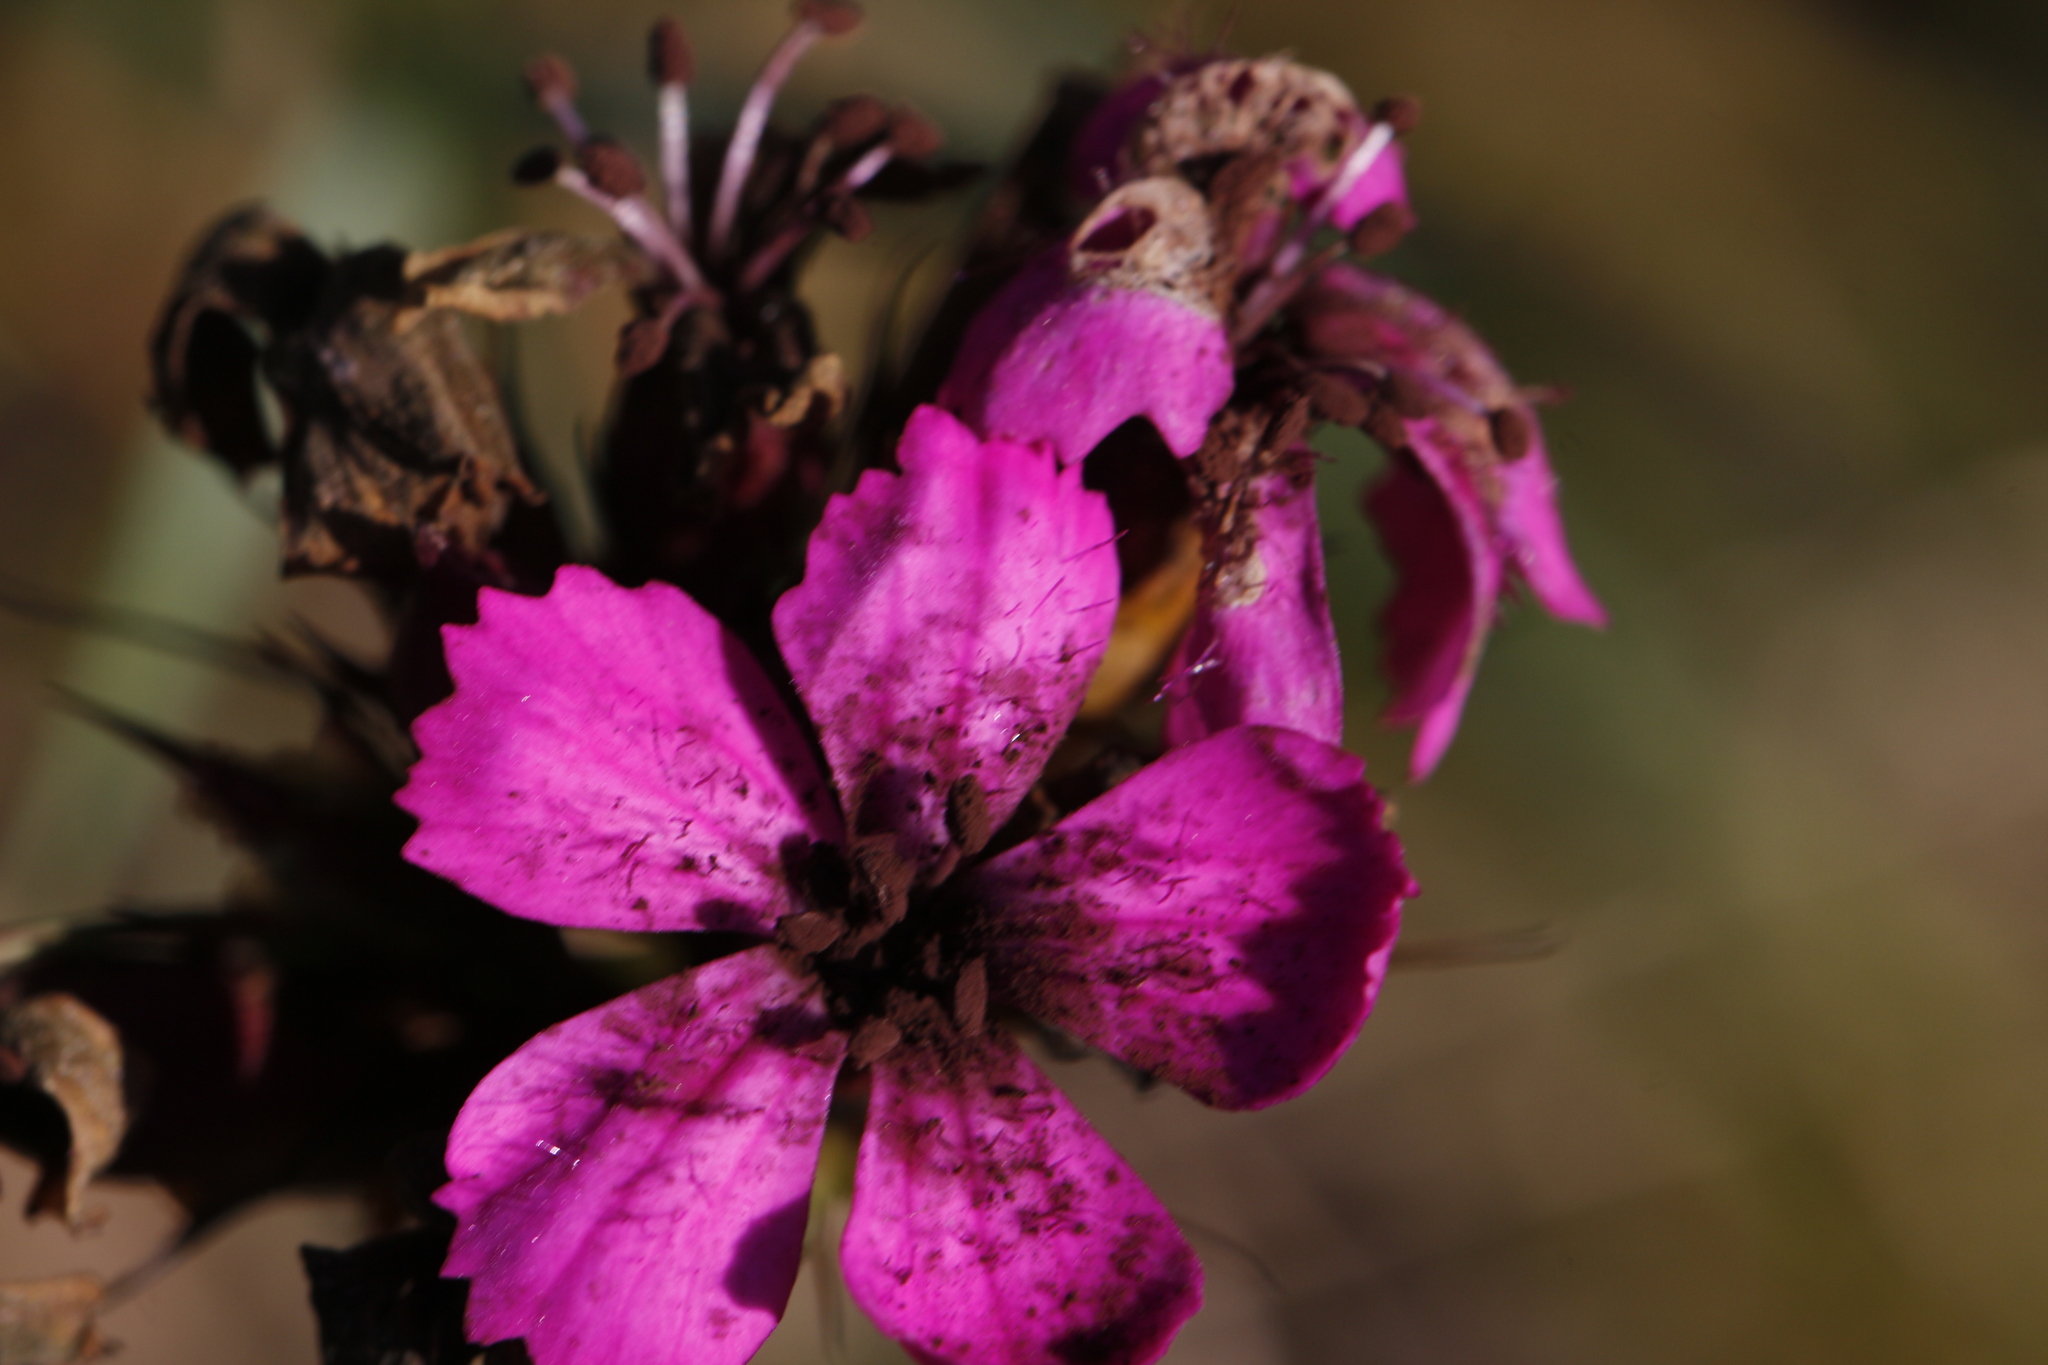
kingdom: Fungi
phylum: Basidiomycota
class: Microbotryomycetes
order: Microbotryales
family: Microbotryaceae
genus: Microbotryum
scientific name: Microbotryum dianthorum
